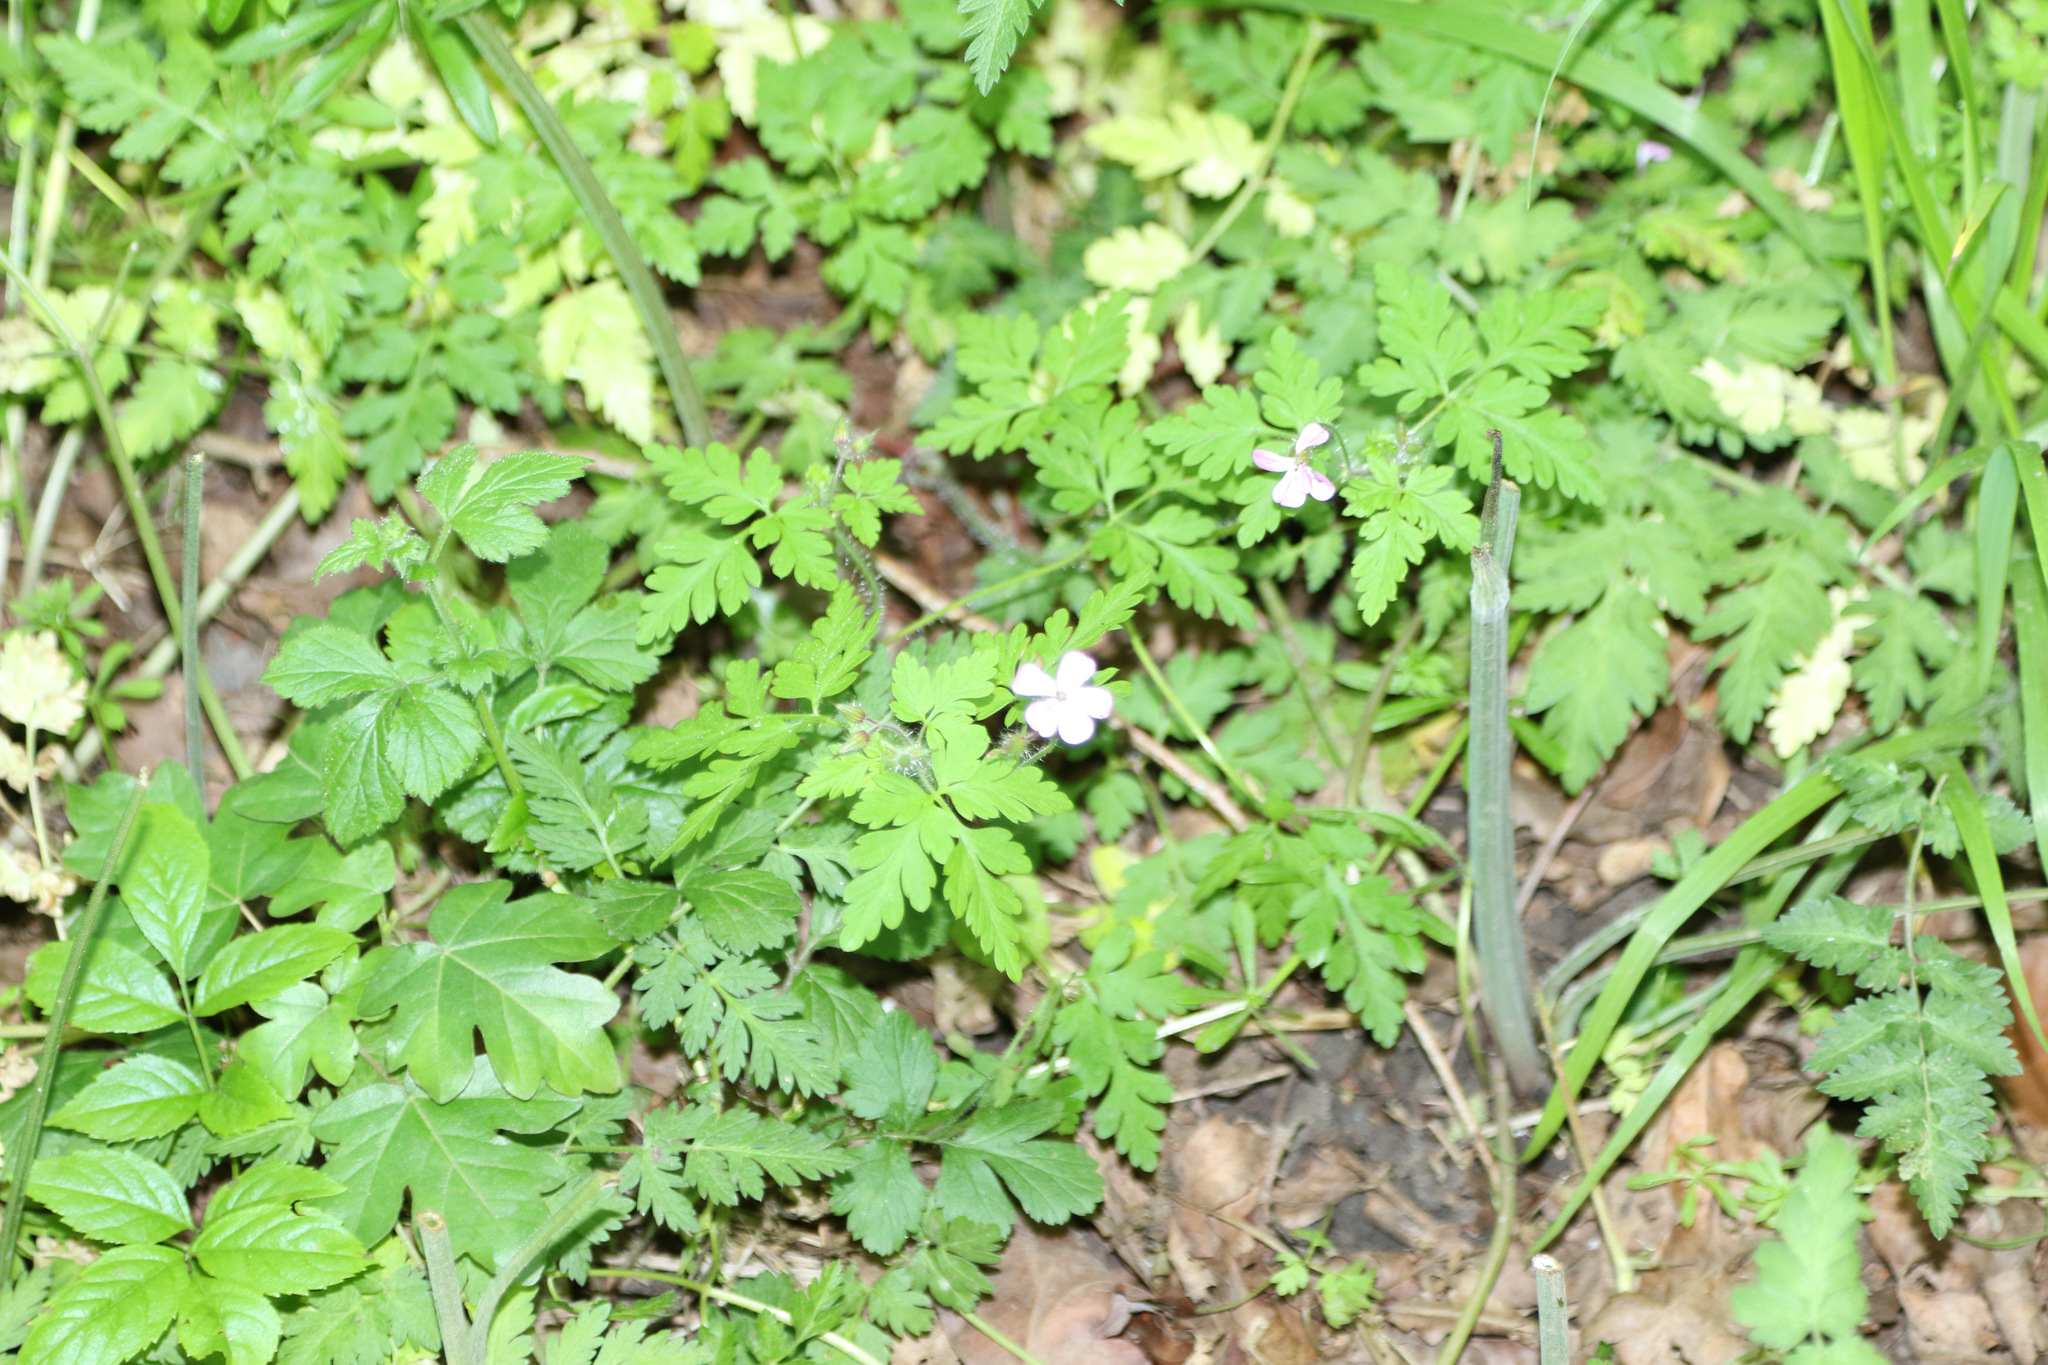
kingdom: Plantae
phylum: Tracheophyta
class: Magnoliopsida
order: Geraniales
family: Geraniaceae
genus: Geranium
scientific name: Geranium robertianum
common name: Herb-robert
